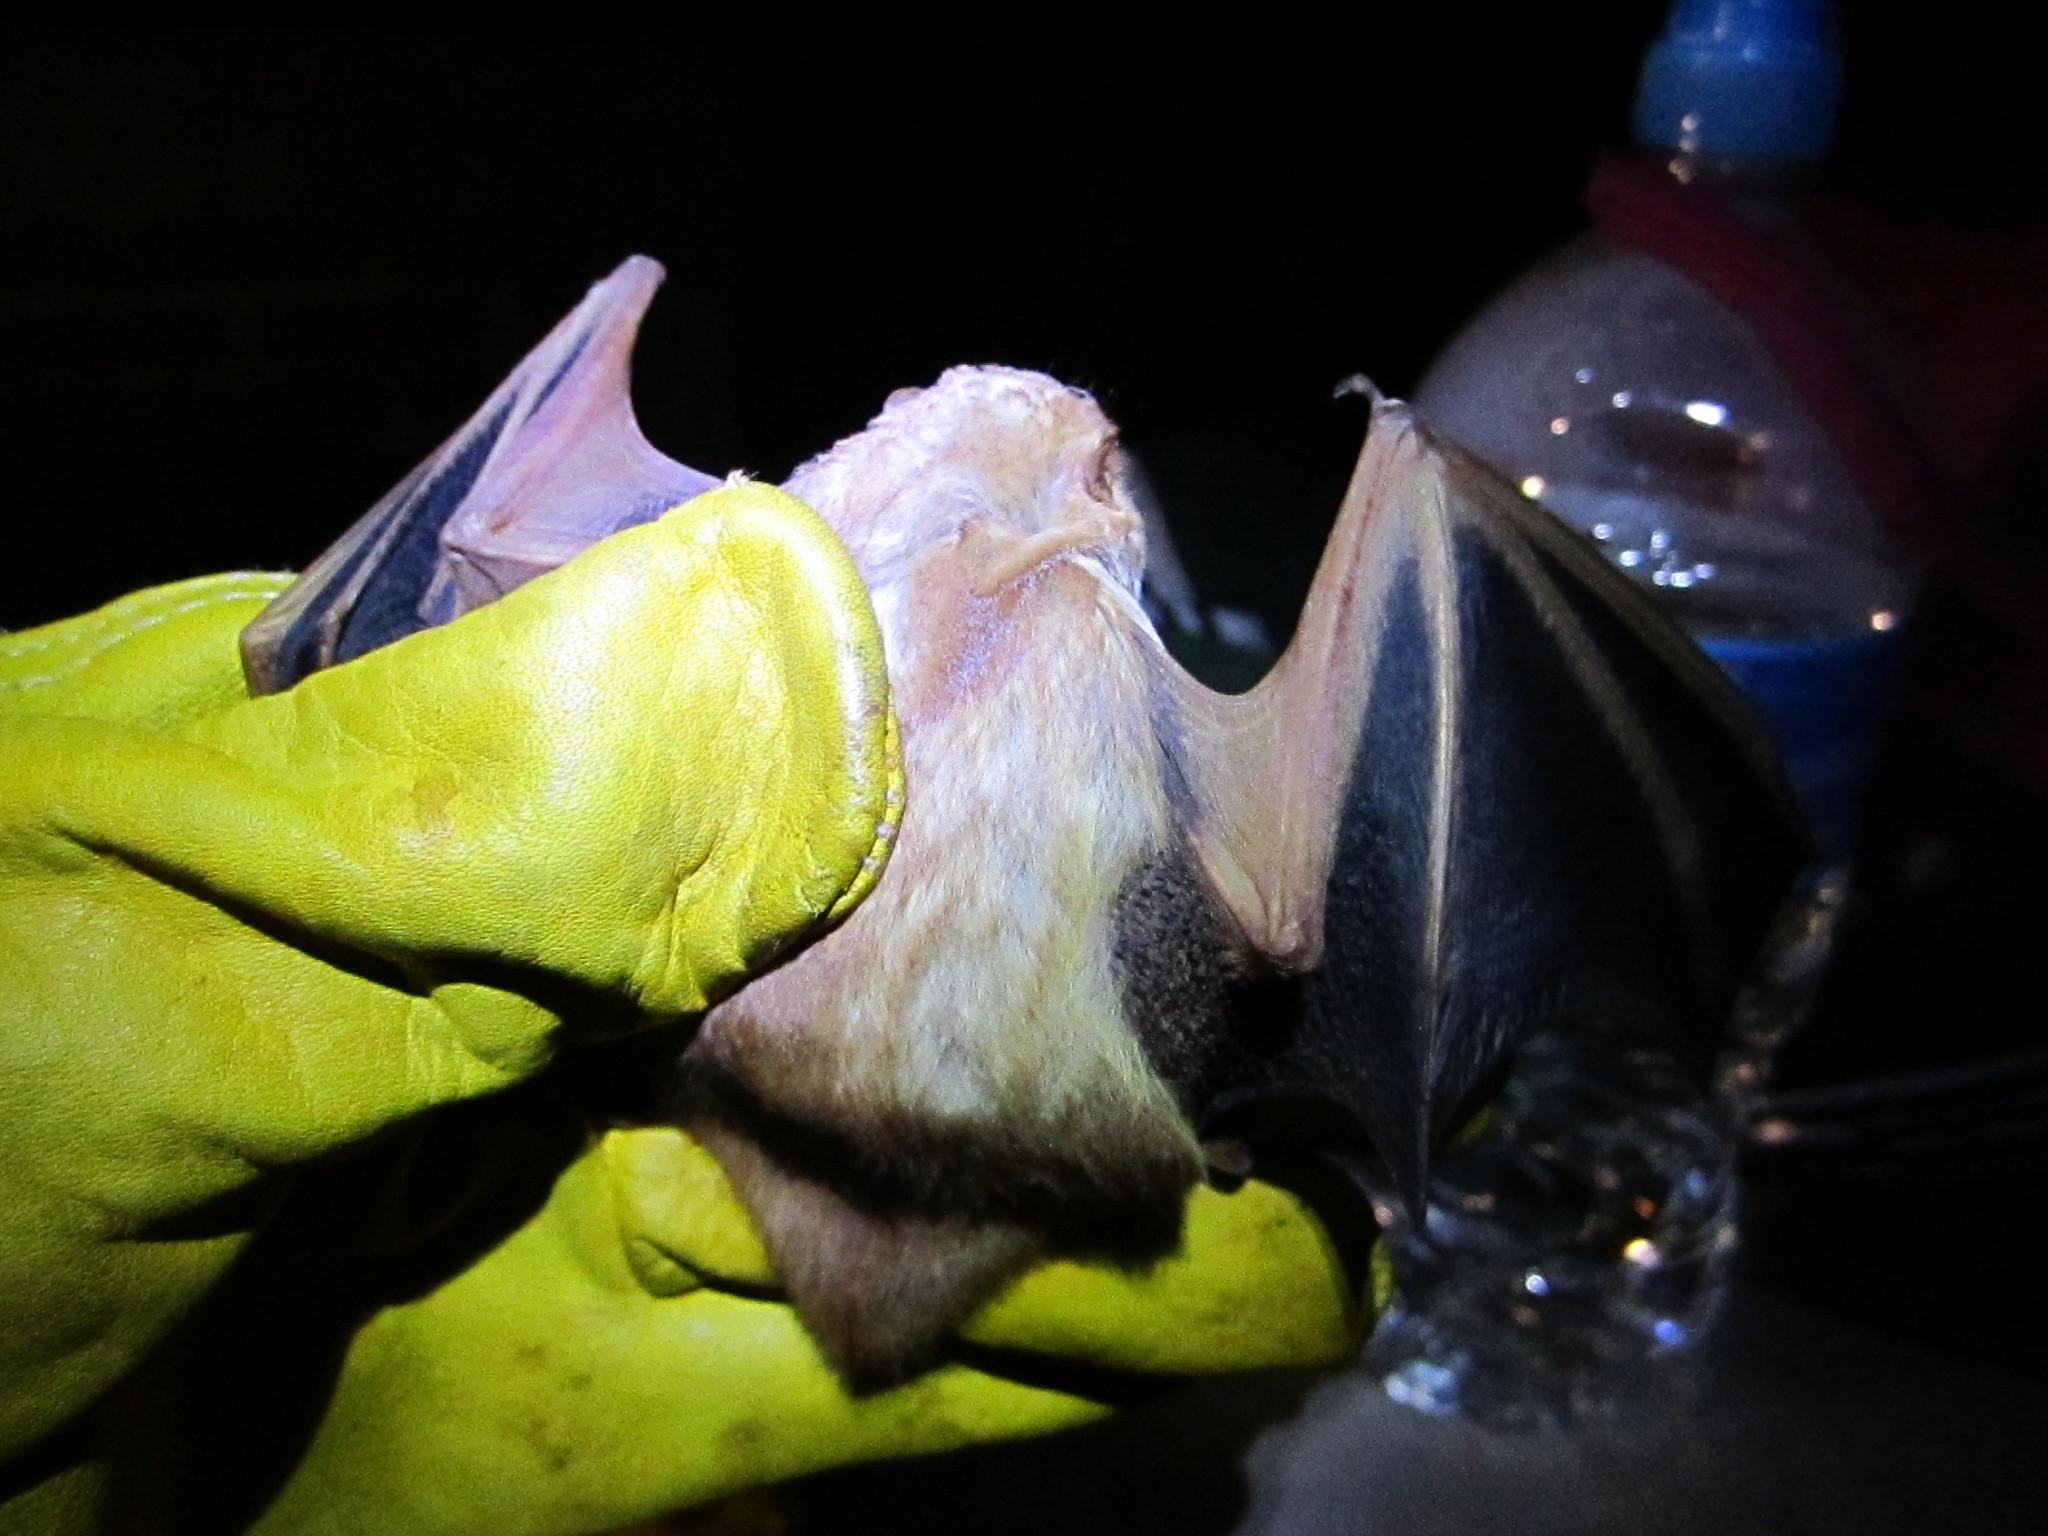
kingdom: Animalia
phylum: Chordata
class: Mammalia
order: Chiroptera
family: Vespertilionidae
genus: Lasiurus
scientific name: Lasiurus frantzii
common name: Desert red bat
